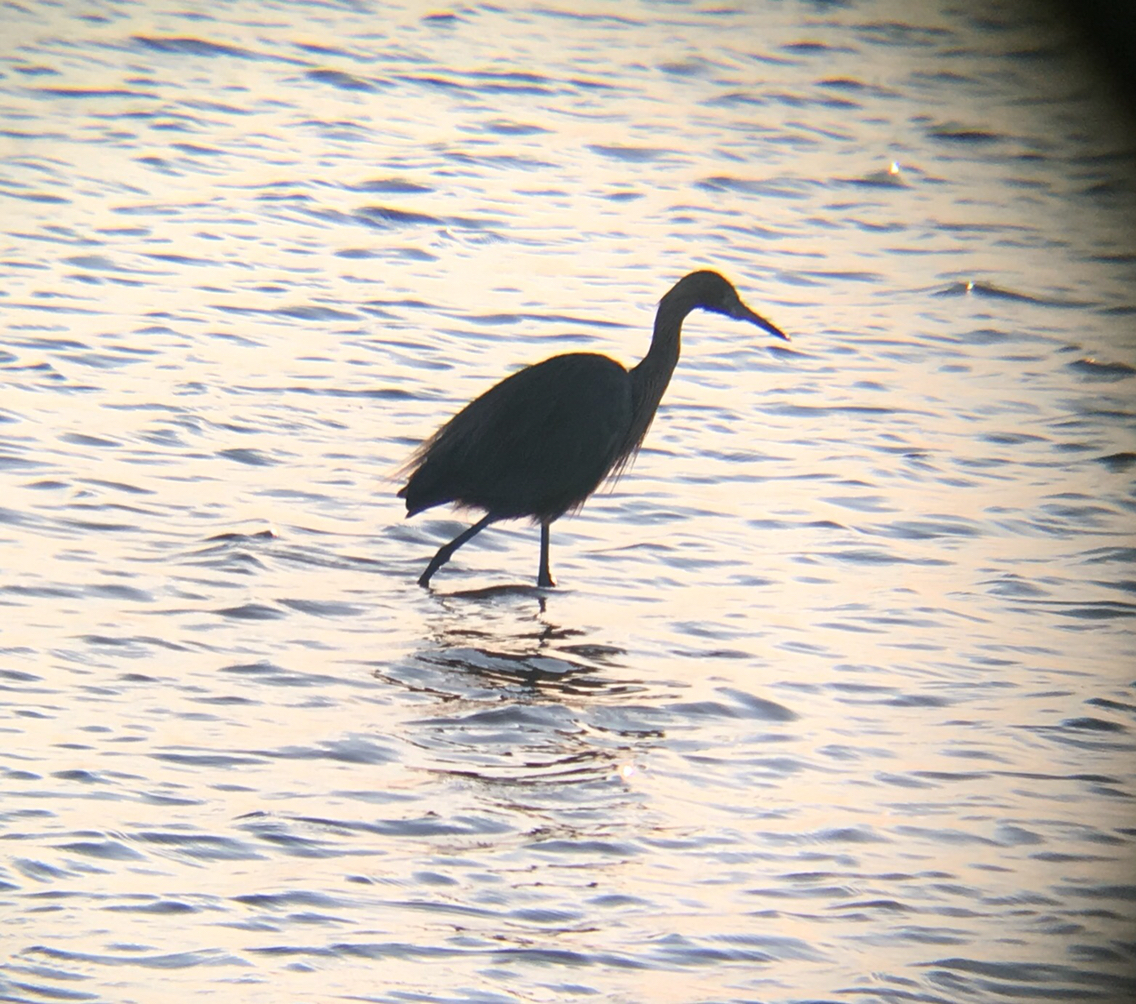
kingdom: Animalia
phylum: Chordata
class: Aves
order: Pelecaniformes
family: Ardeidae
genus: Egretta
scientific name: Egretta rufescens
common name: Reddish egret
